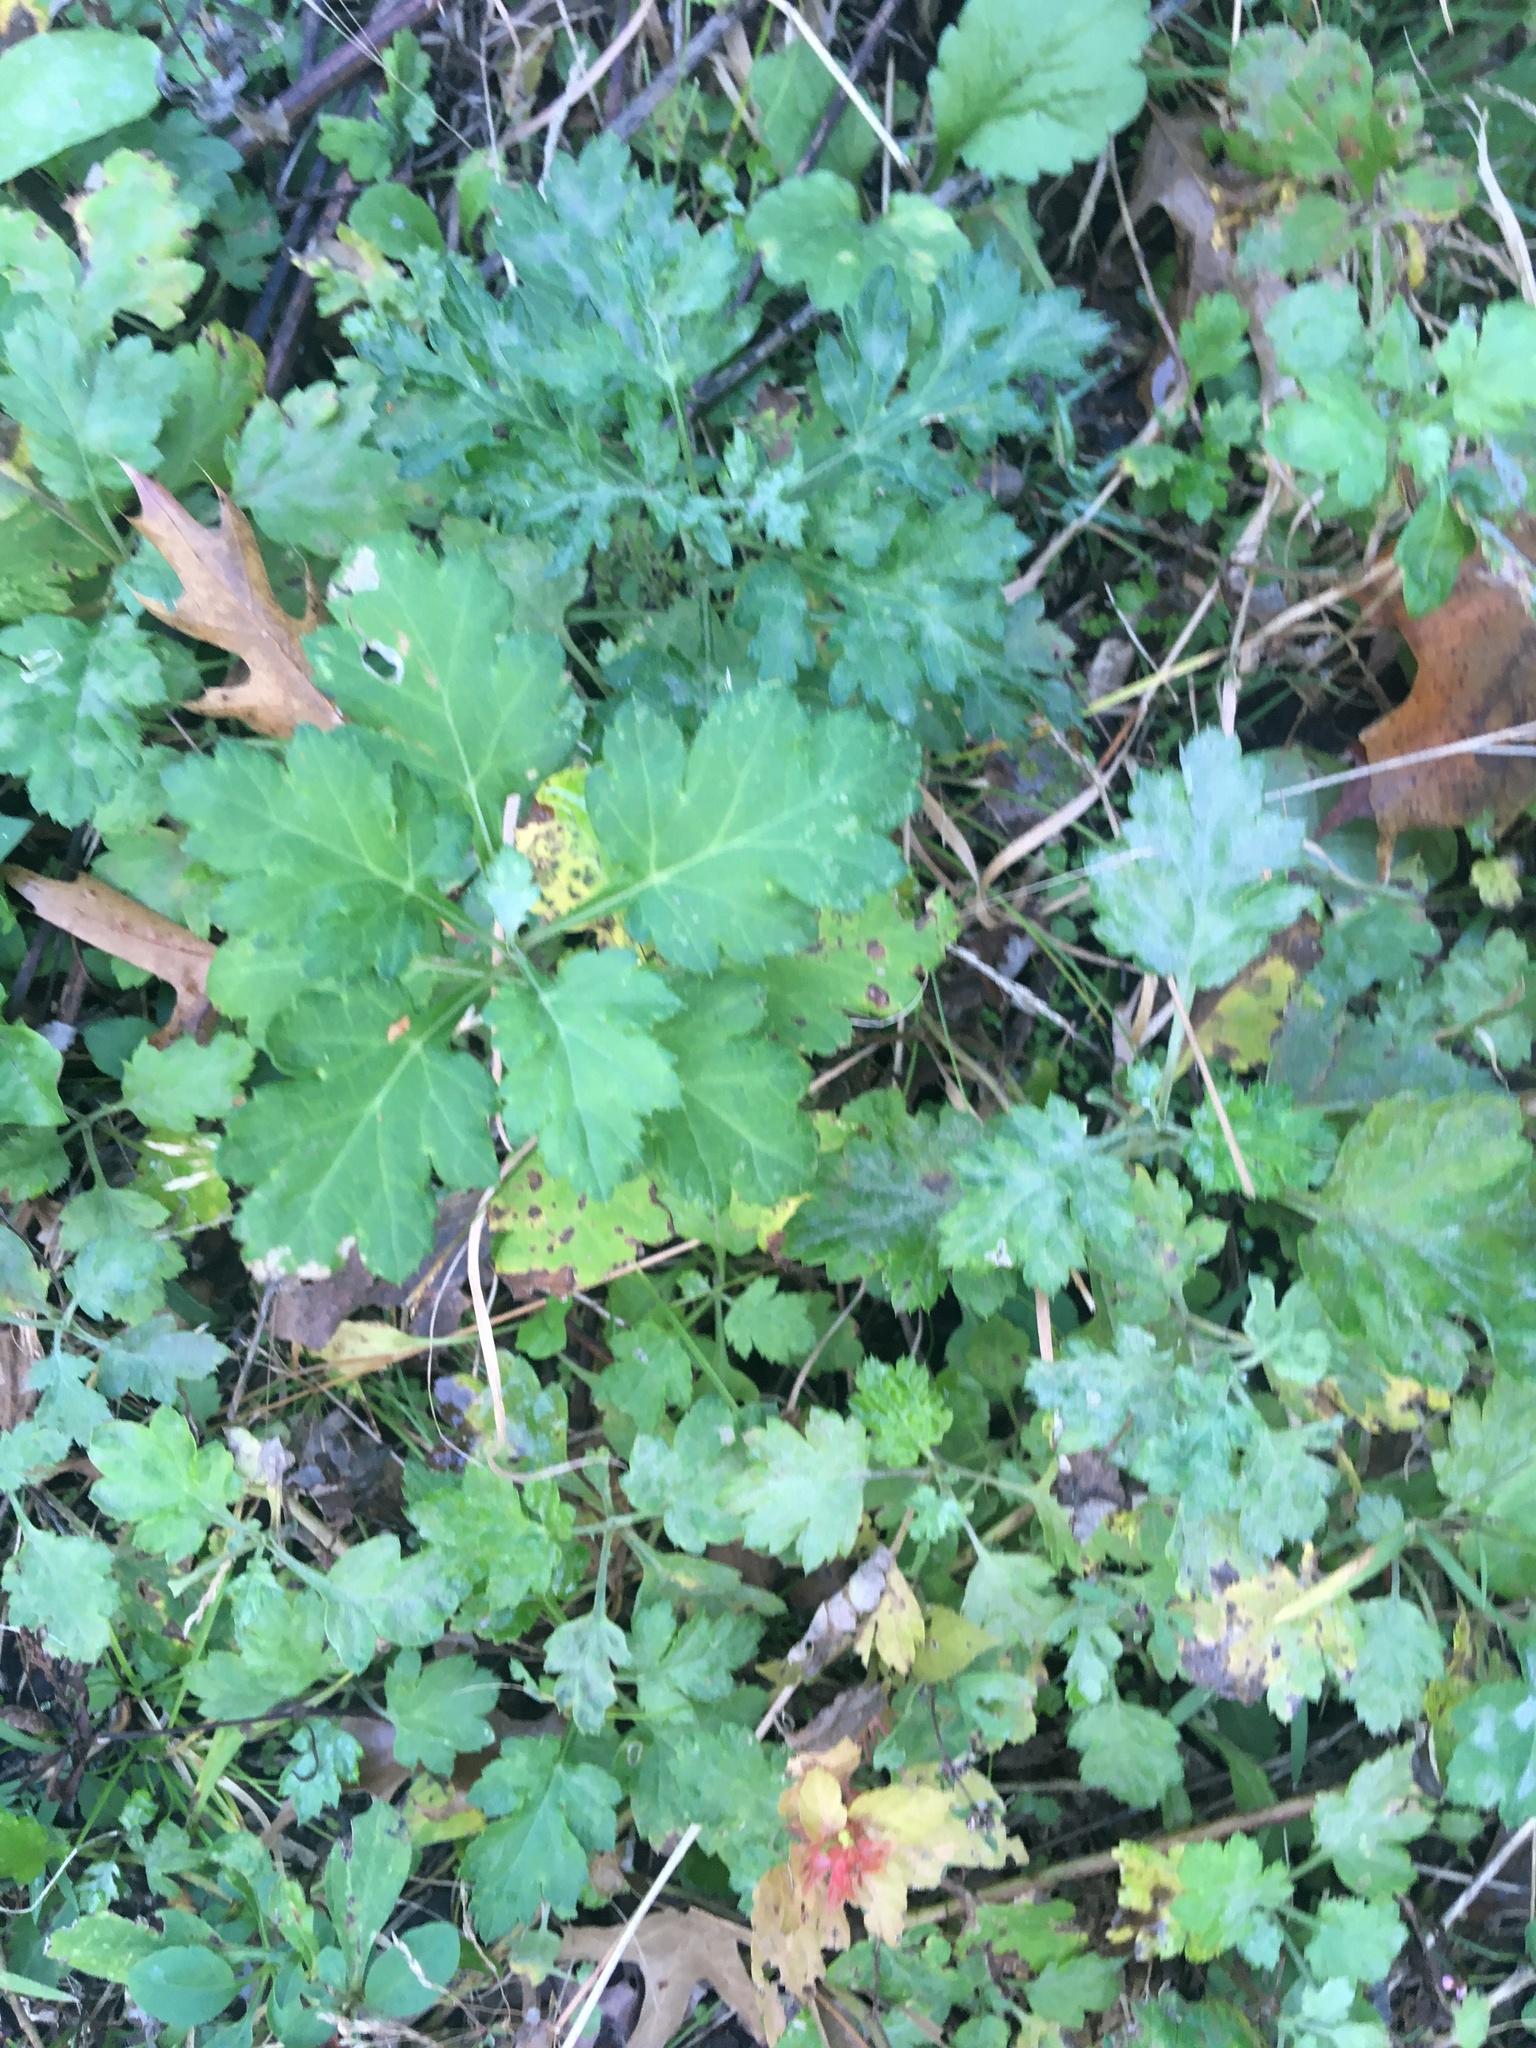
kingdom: Plantae
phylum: Tracheophyta
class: Magnoliopsida
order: Asterales
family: Asteraceae
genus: Artemisia
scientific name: Artemisia vulgaris
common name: Mugwort
